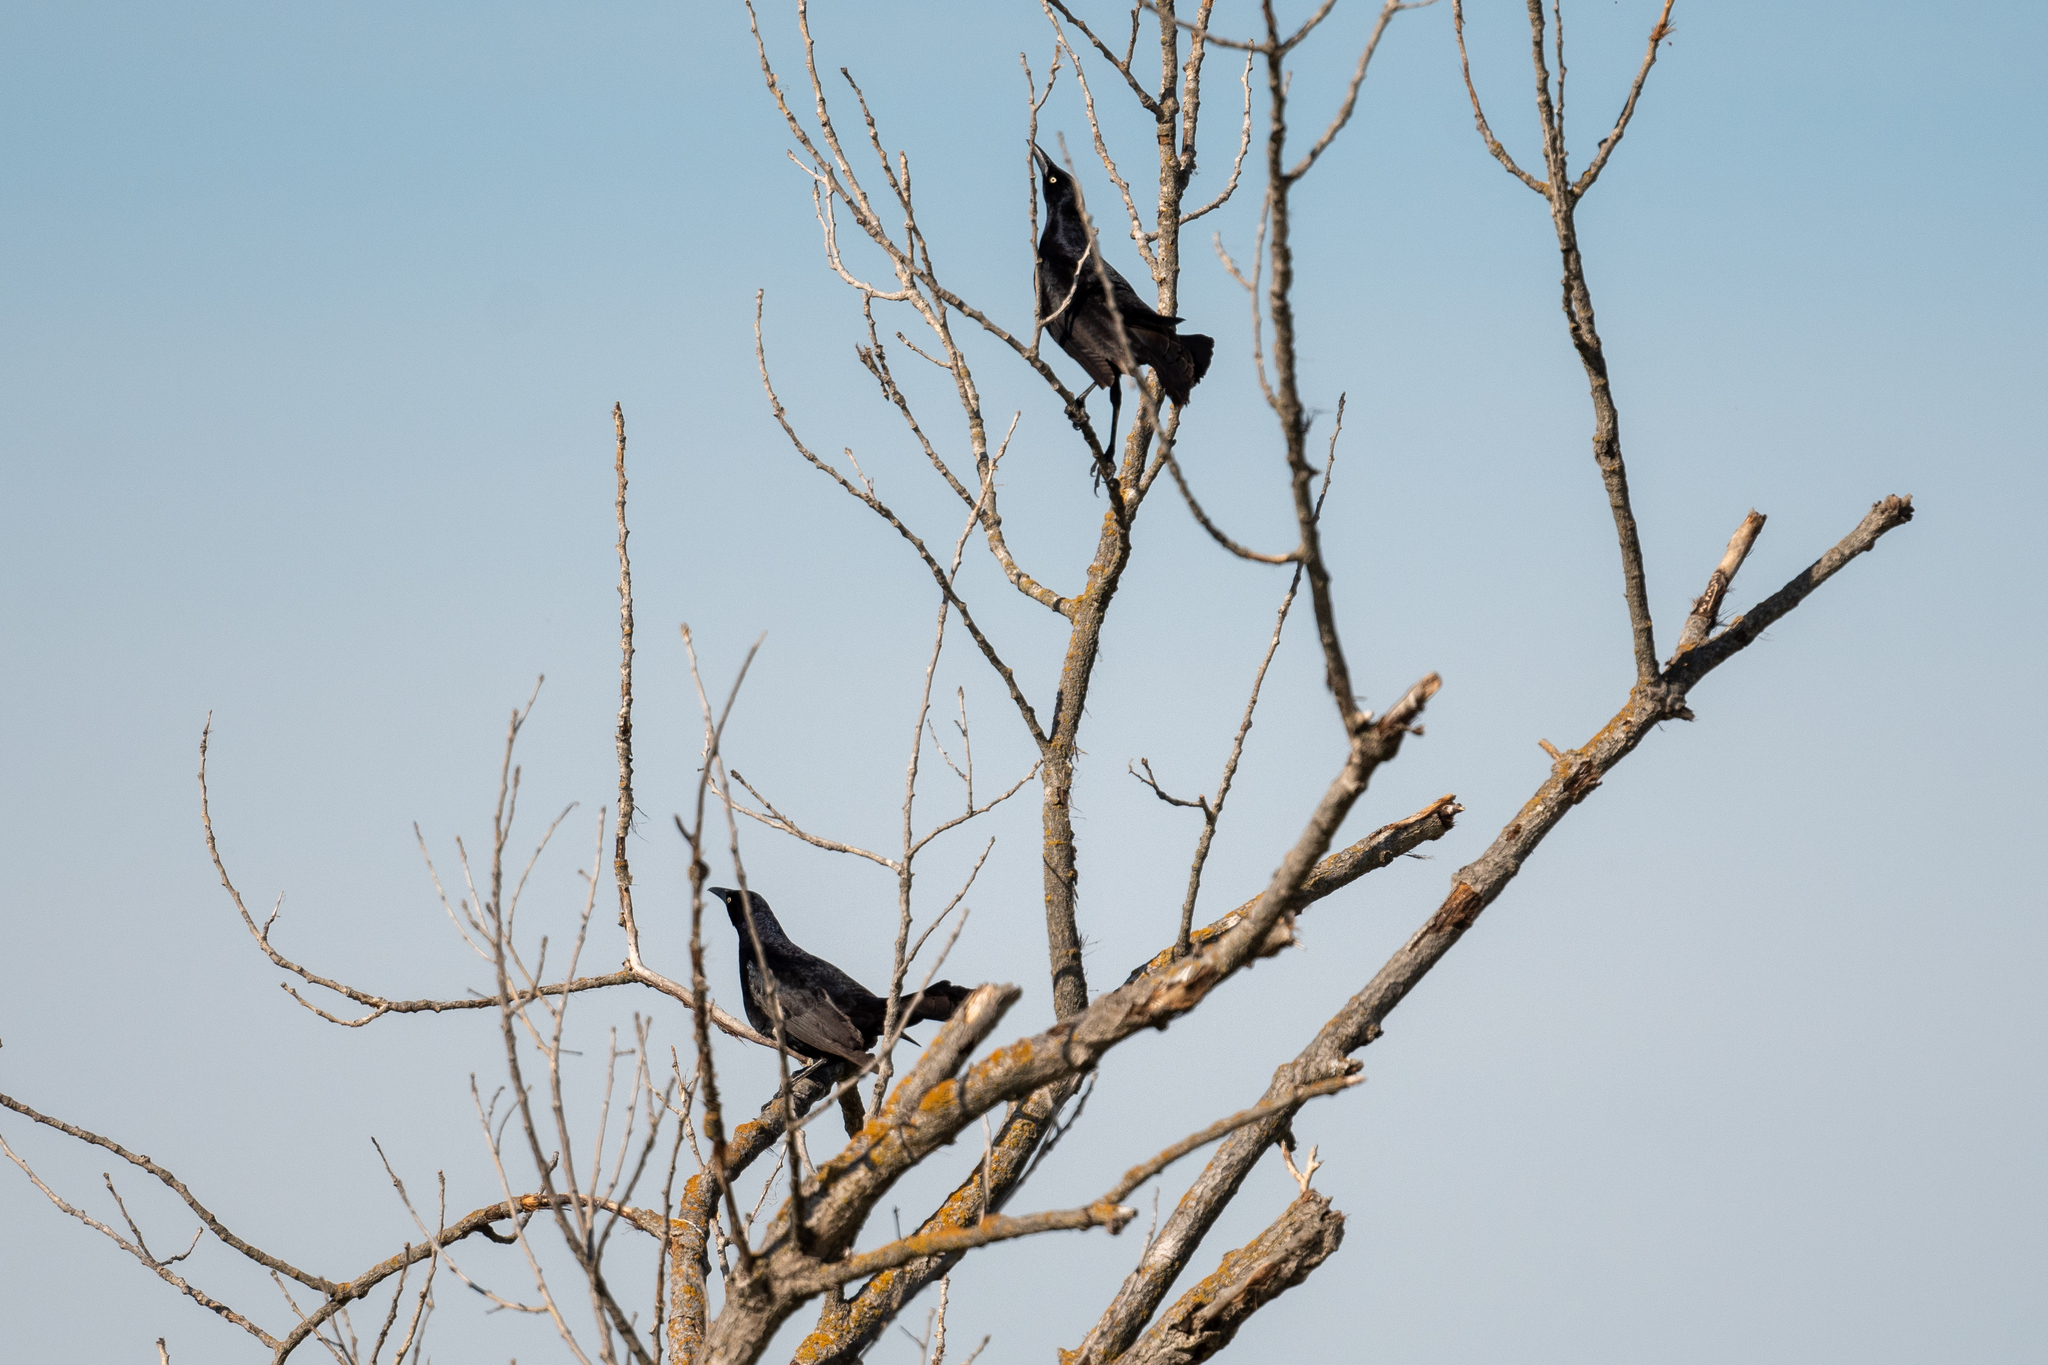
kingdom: Animalia
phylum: Chordata
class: Aves
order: Passeriformes
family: Icteridae
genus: Quiscalus
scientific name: Quiscalus mexicanus
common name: Great-tailed grackle
